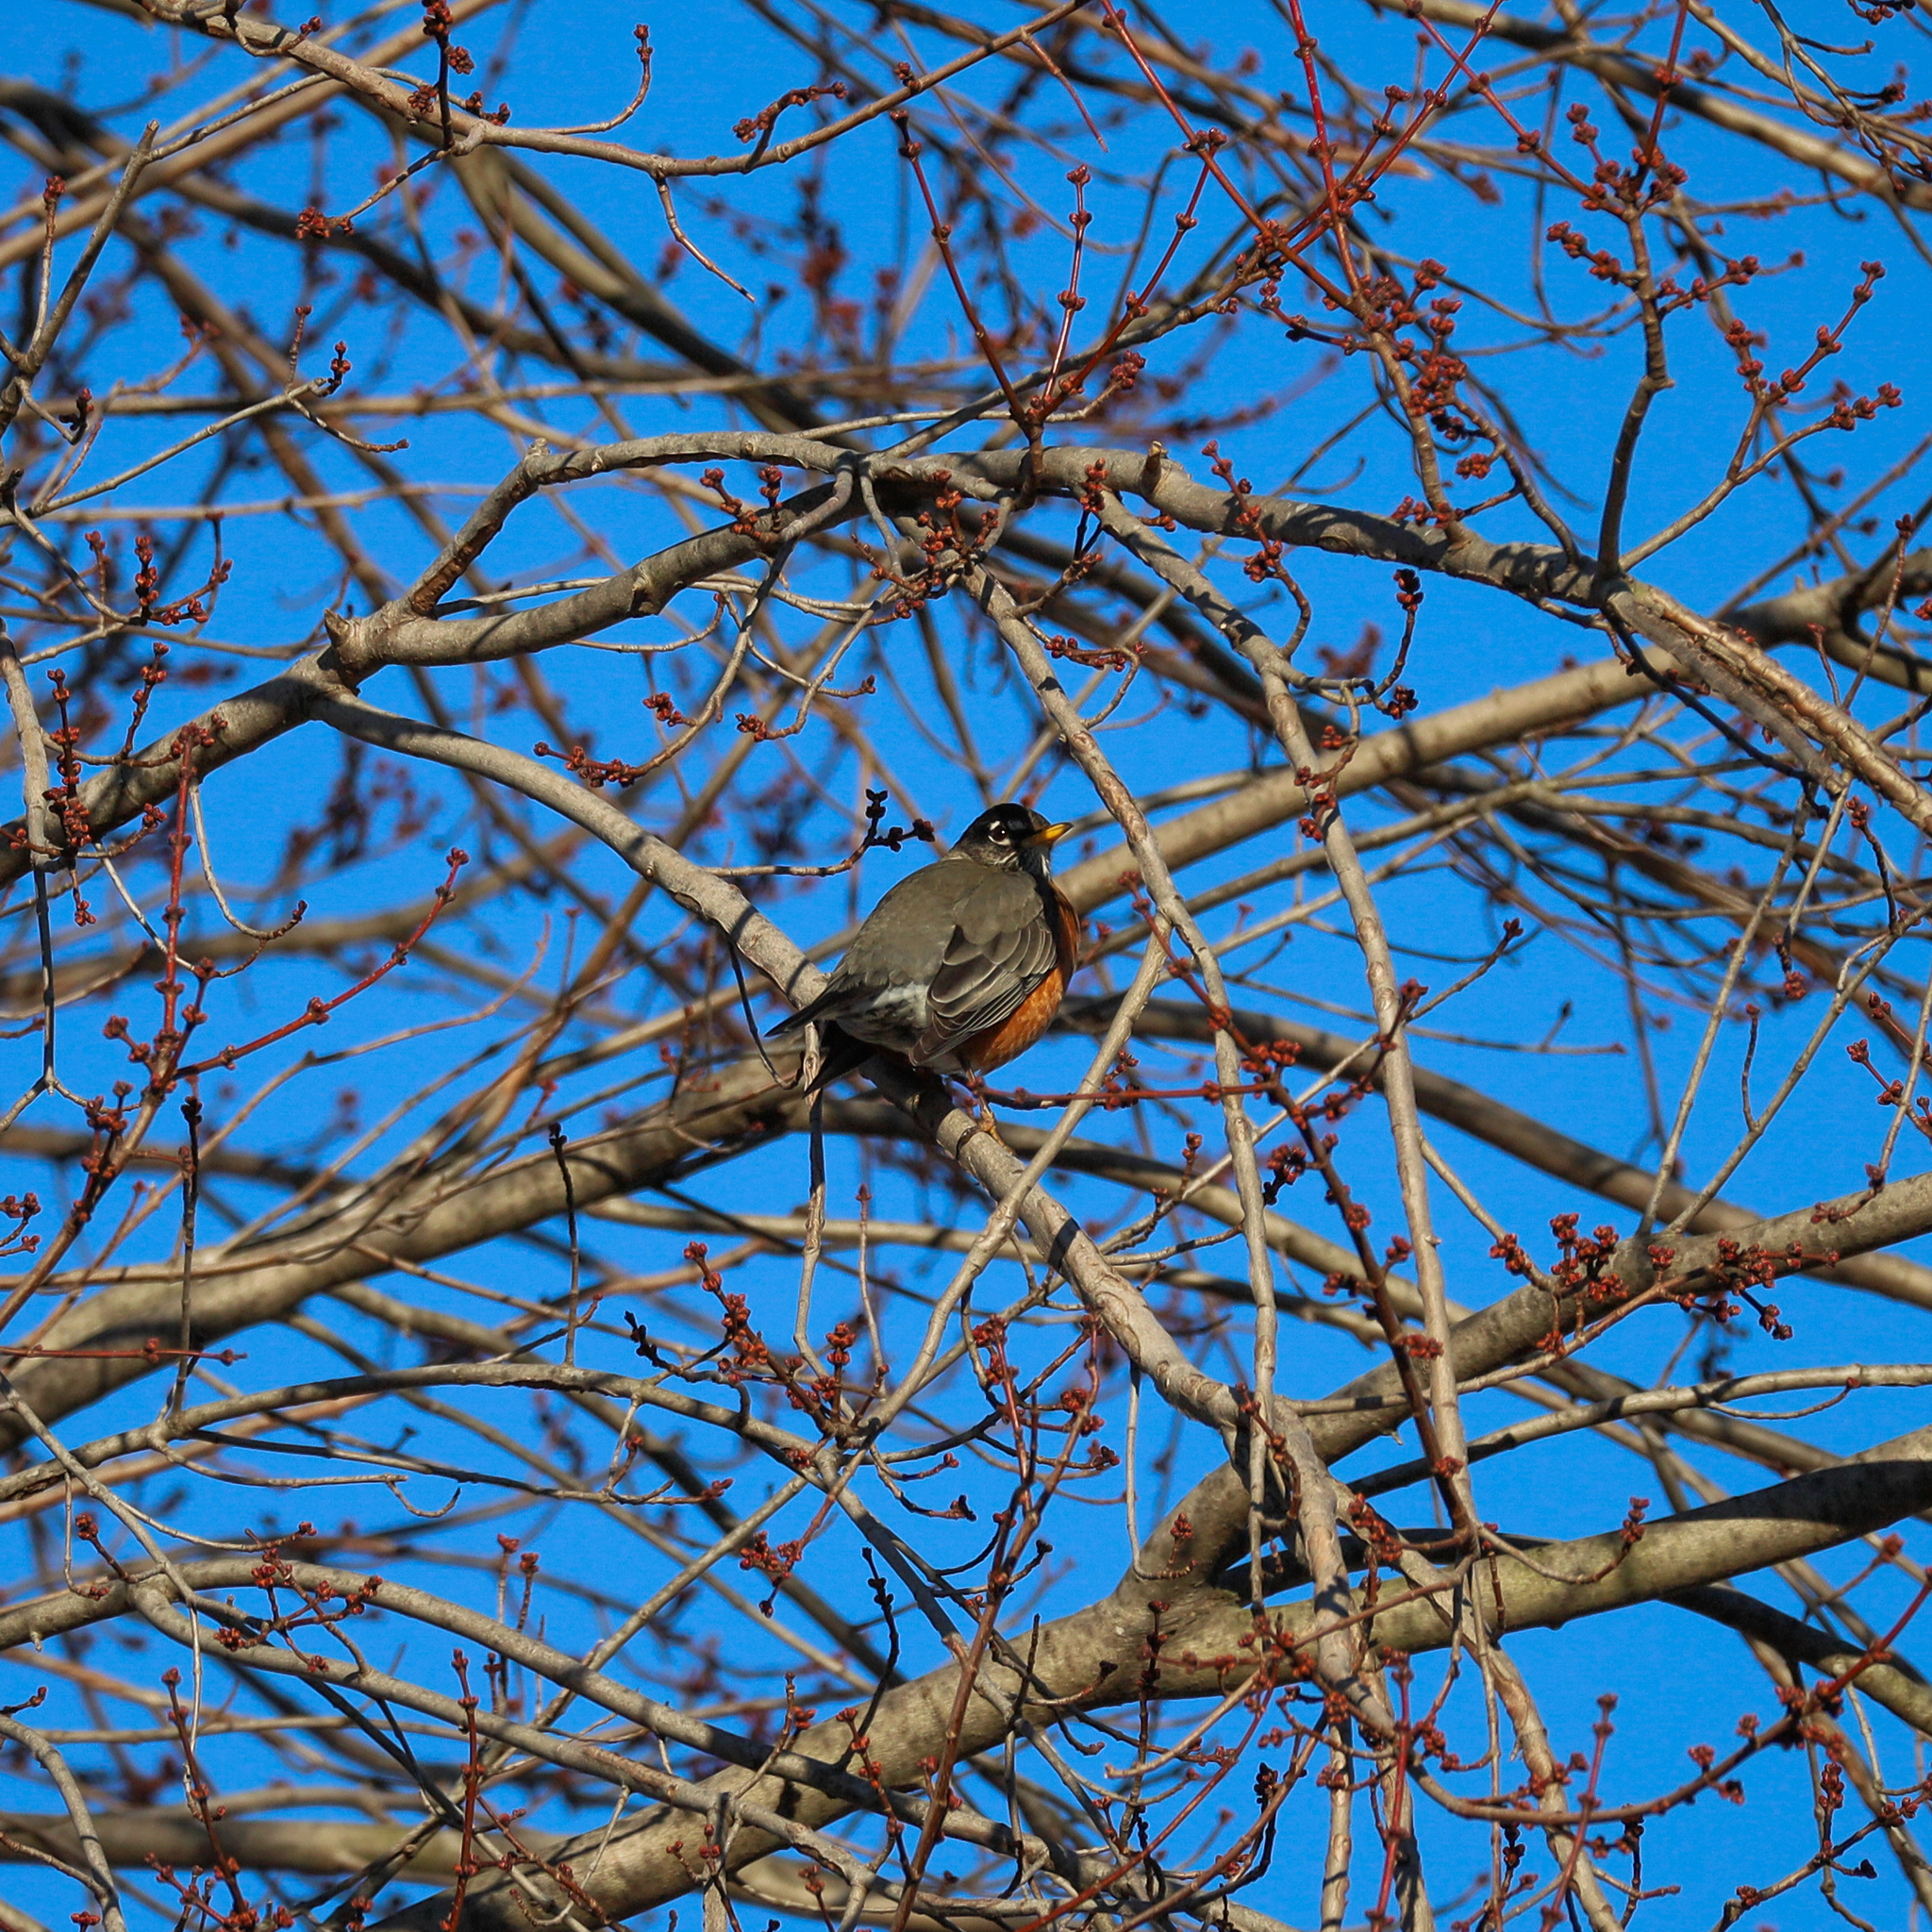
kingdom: Animalia
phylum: Chordata
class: Aves
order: Passeriformes
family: Turdidae
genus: Turdus
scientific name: Turdus migratorius
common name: American robin
